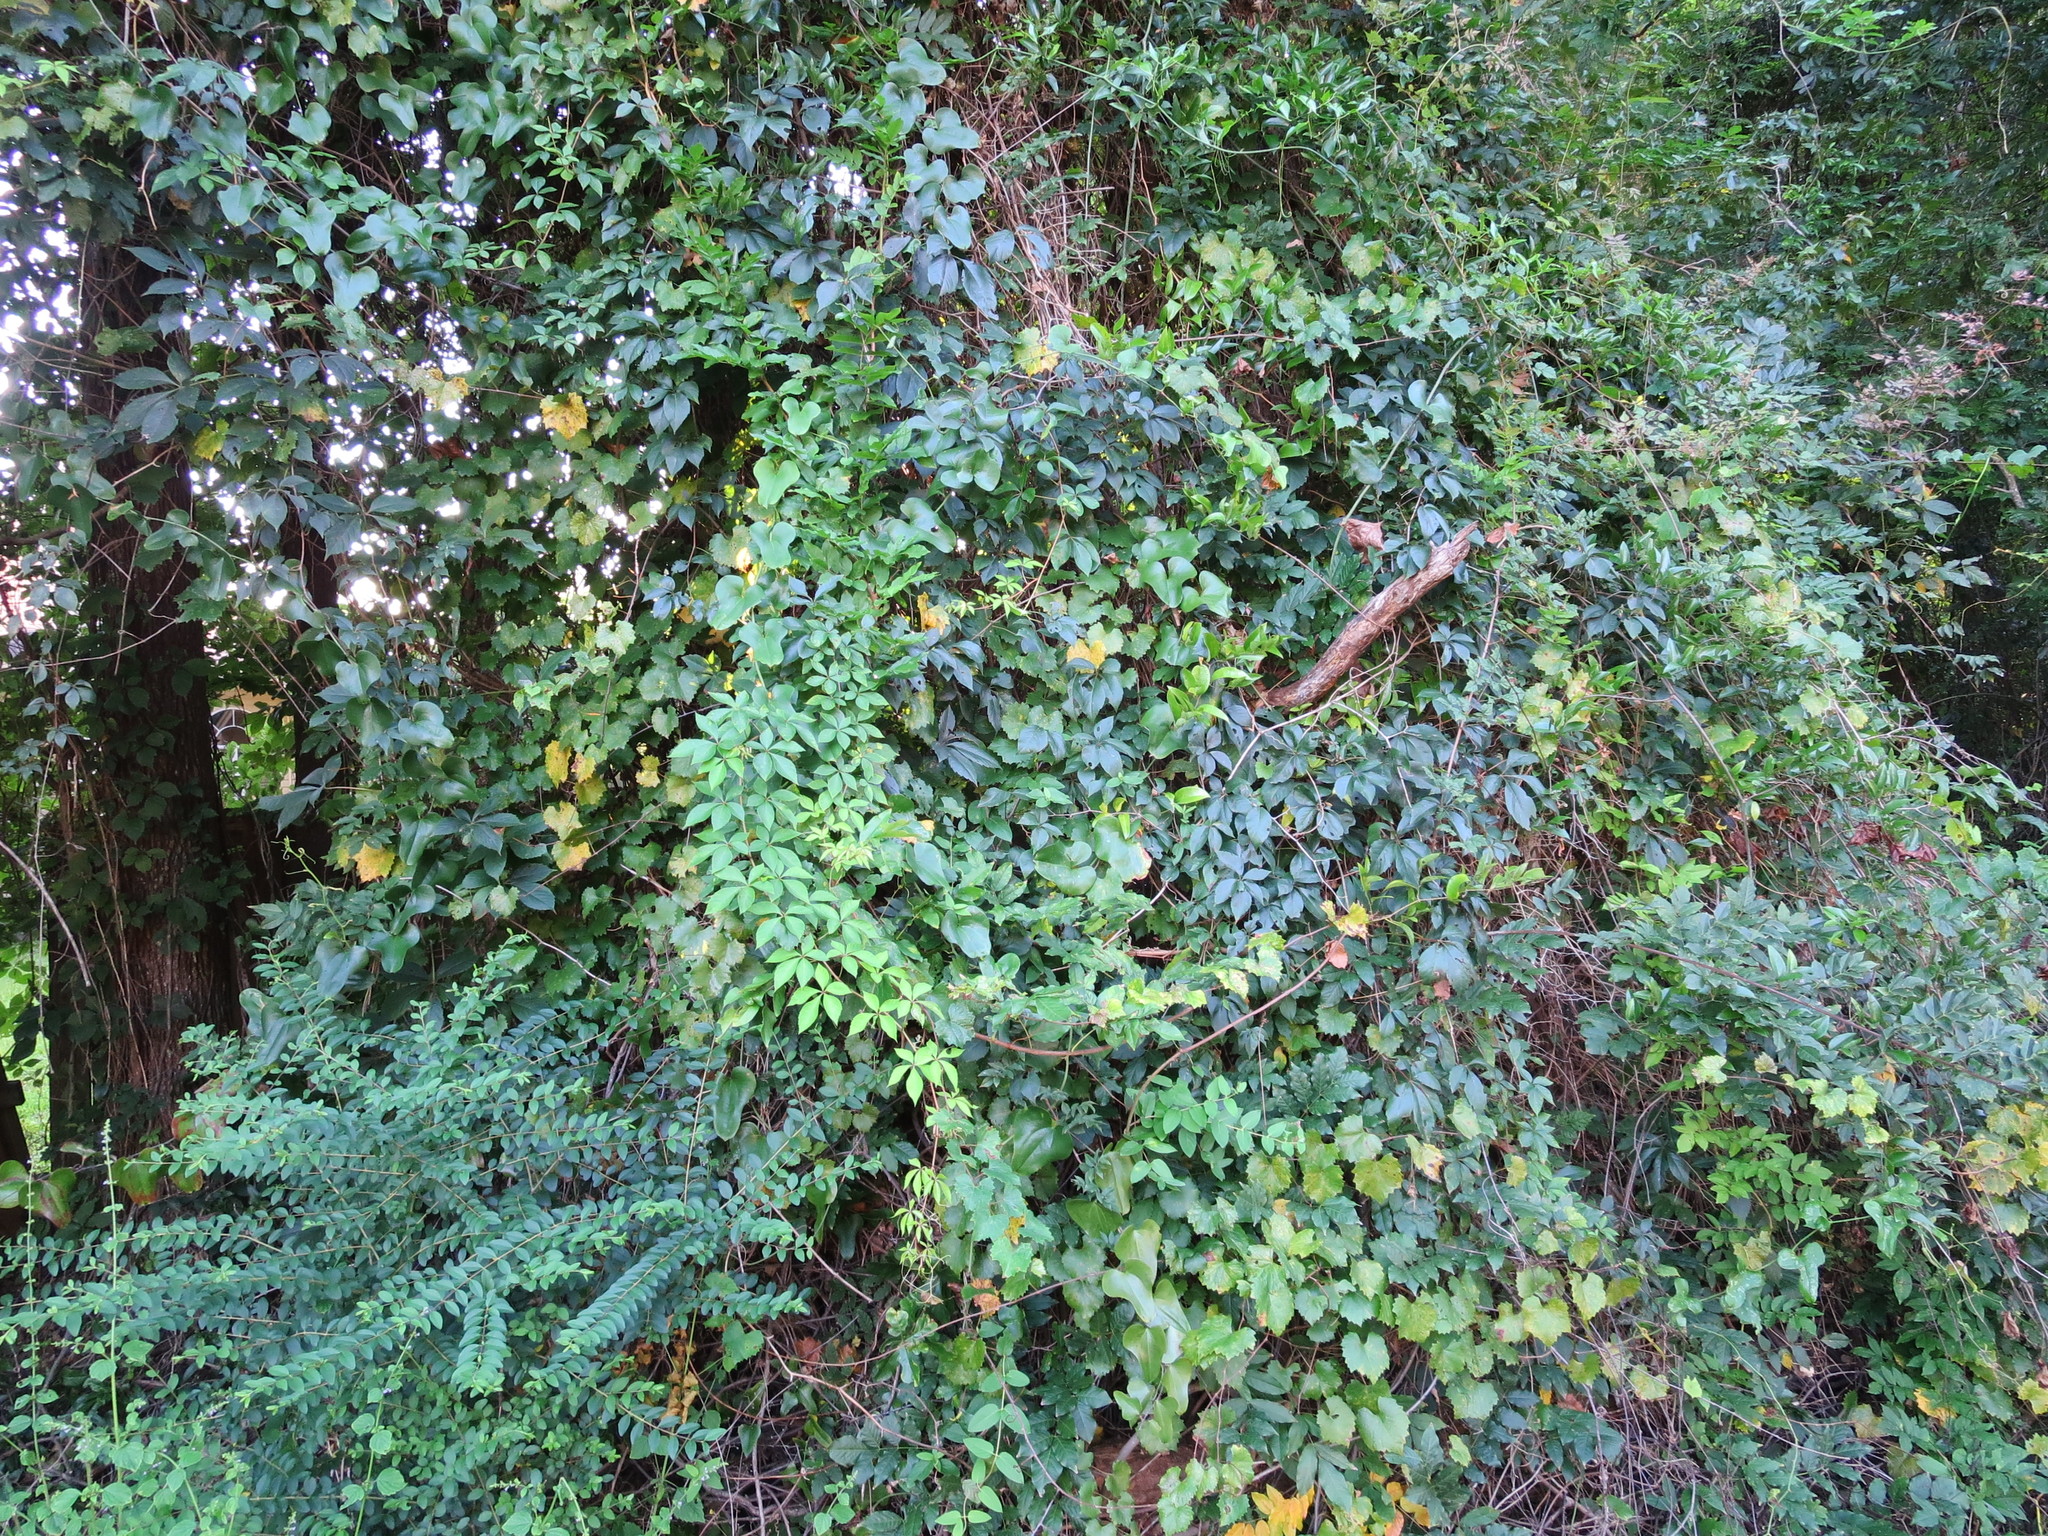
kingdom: Plantae
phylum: Tracheophyta
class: Magnoliopsida
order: Vitales
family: Vitaceae
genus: Parthenocissus
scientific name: Parthenocissus quinquefolia
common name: Virginia-creeper
